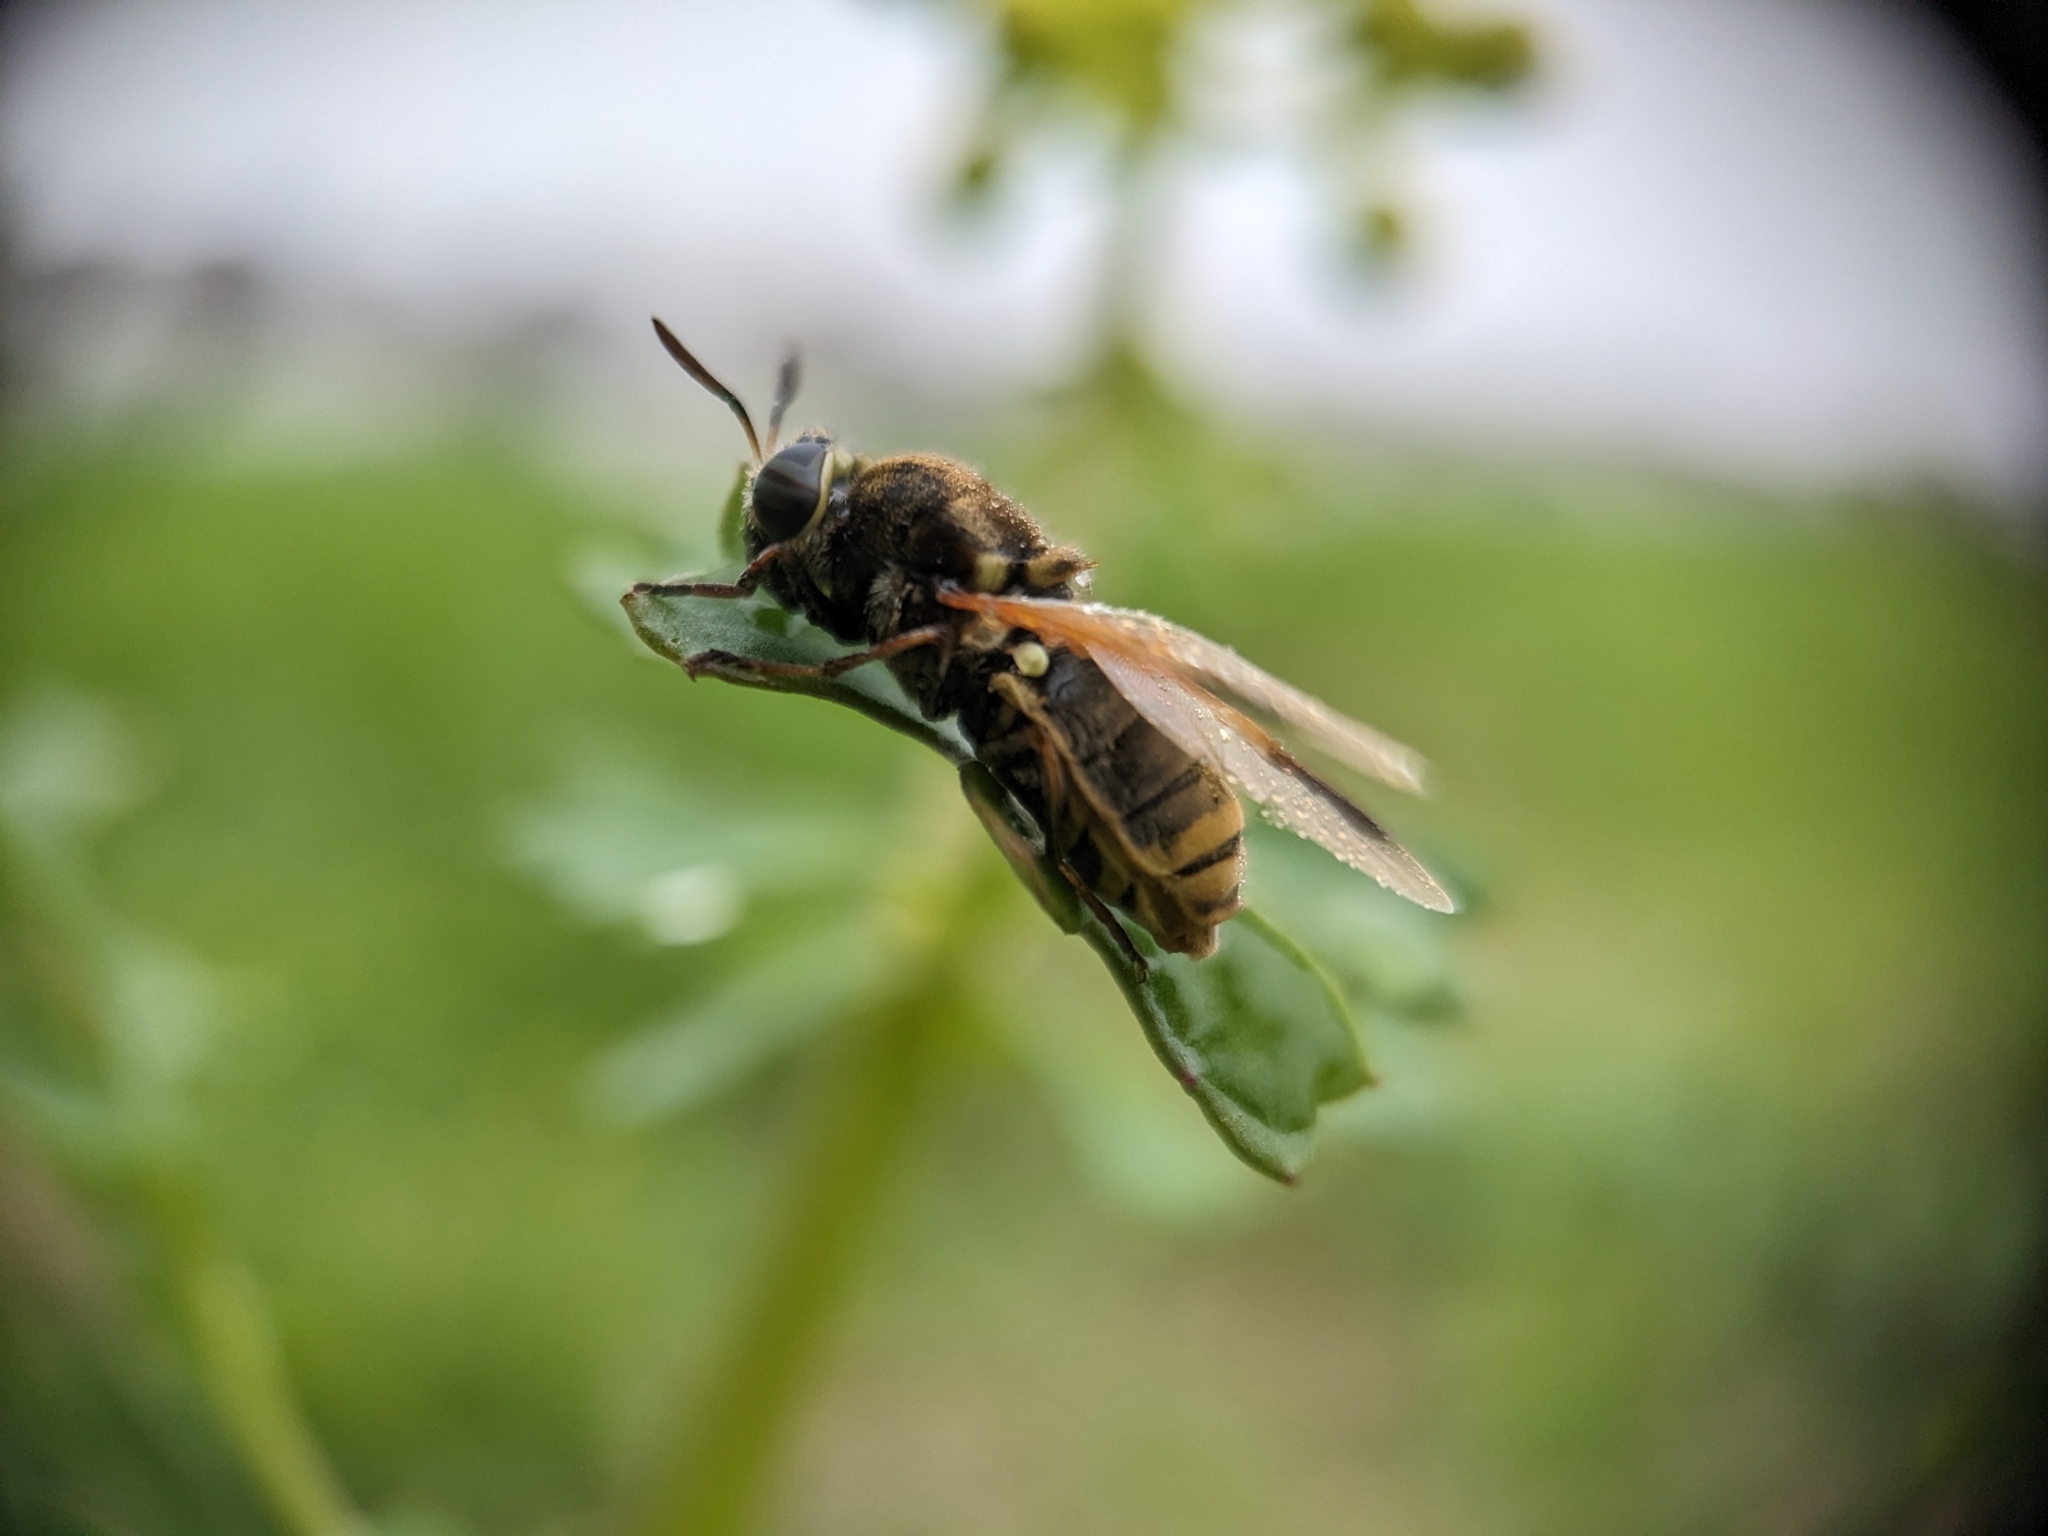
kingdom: Animalia
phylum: Arthropoda
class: Insecta
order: Diptera
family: Stratiomyidae
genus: Hoplitimyia
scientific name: Hoplitimyia mutabilis
